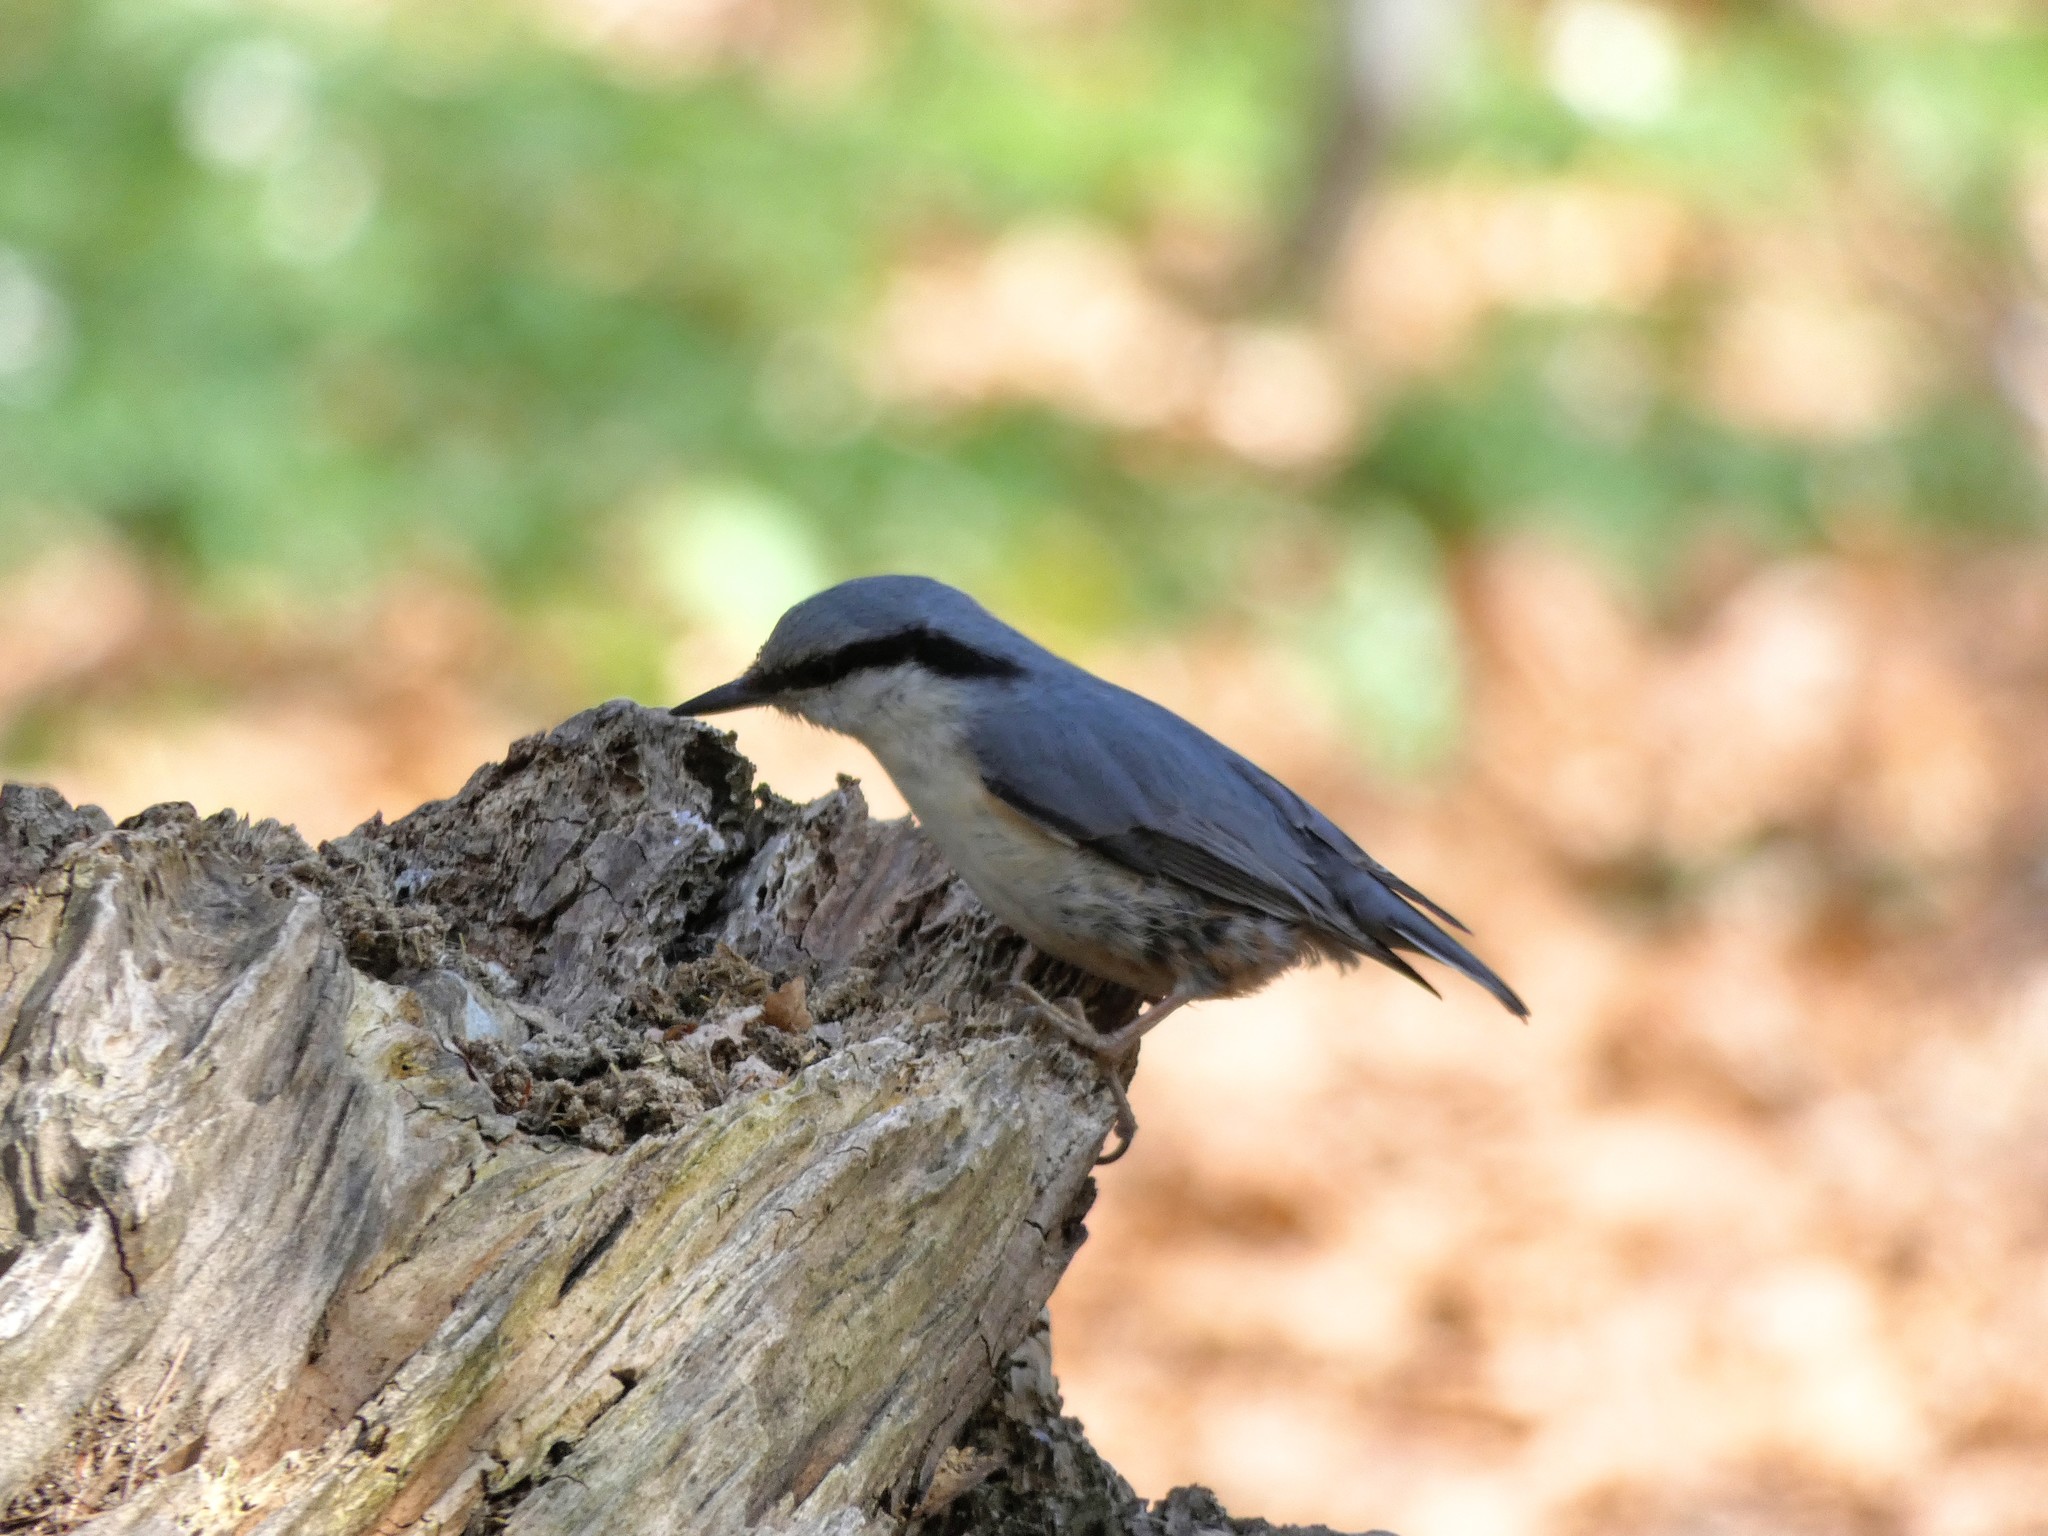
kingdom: Animalia
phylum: Chordata
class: Aves
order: Passeriformes
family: Sittidae
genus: Sitta
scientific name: Sitta europaea
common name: Eurasian nuthatch
